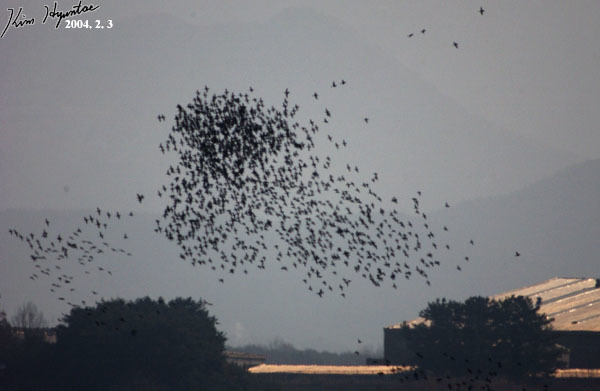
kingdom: Animalia
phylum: Chordata
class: Aves
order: Anseriformes
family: Anatidae
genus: Sibirionetta
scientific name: Sibirionetta formosa
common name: Baikal teal
